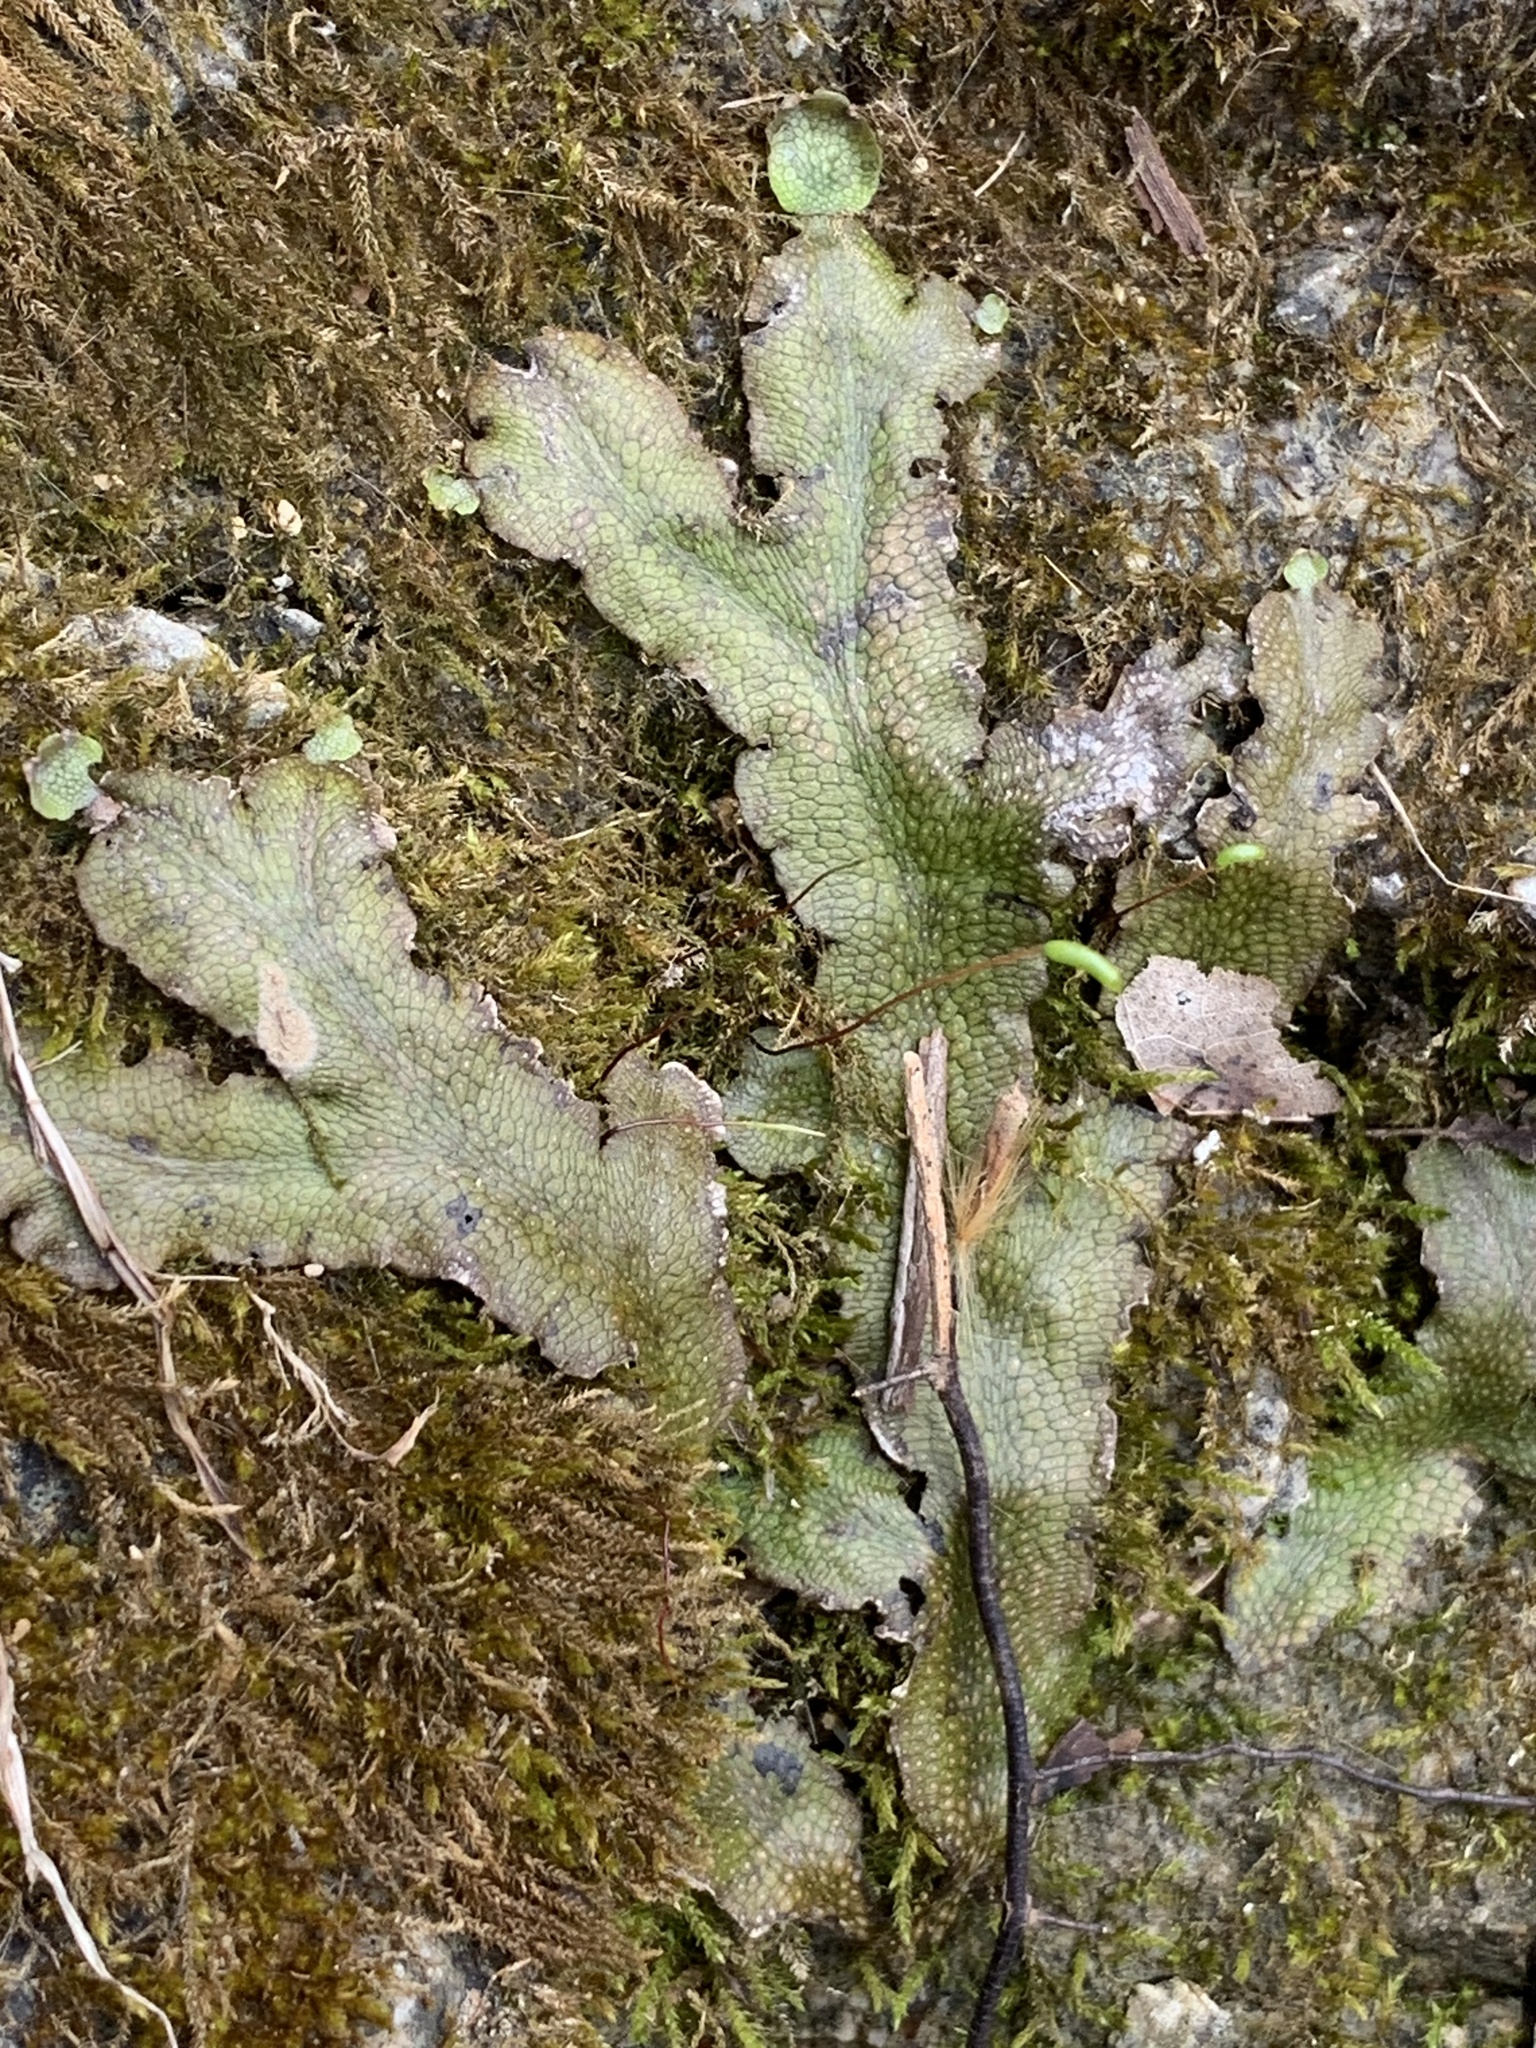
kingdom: Plantae
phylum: Marchantiophyta
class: Marchantiopsida
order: Marchantiales
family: Conocephalaceae
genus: Conocephalum
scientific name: Conocephalum salebrosum
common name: Cat-tongue liverwort
